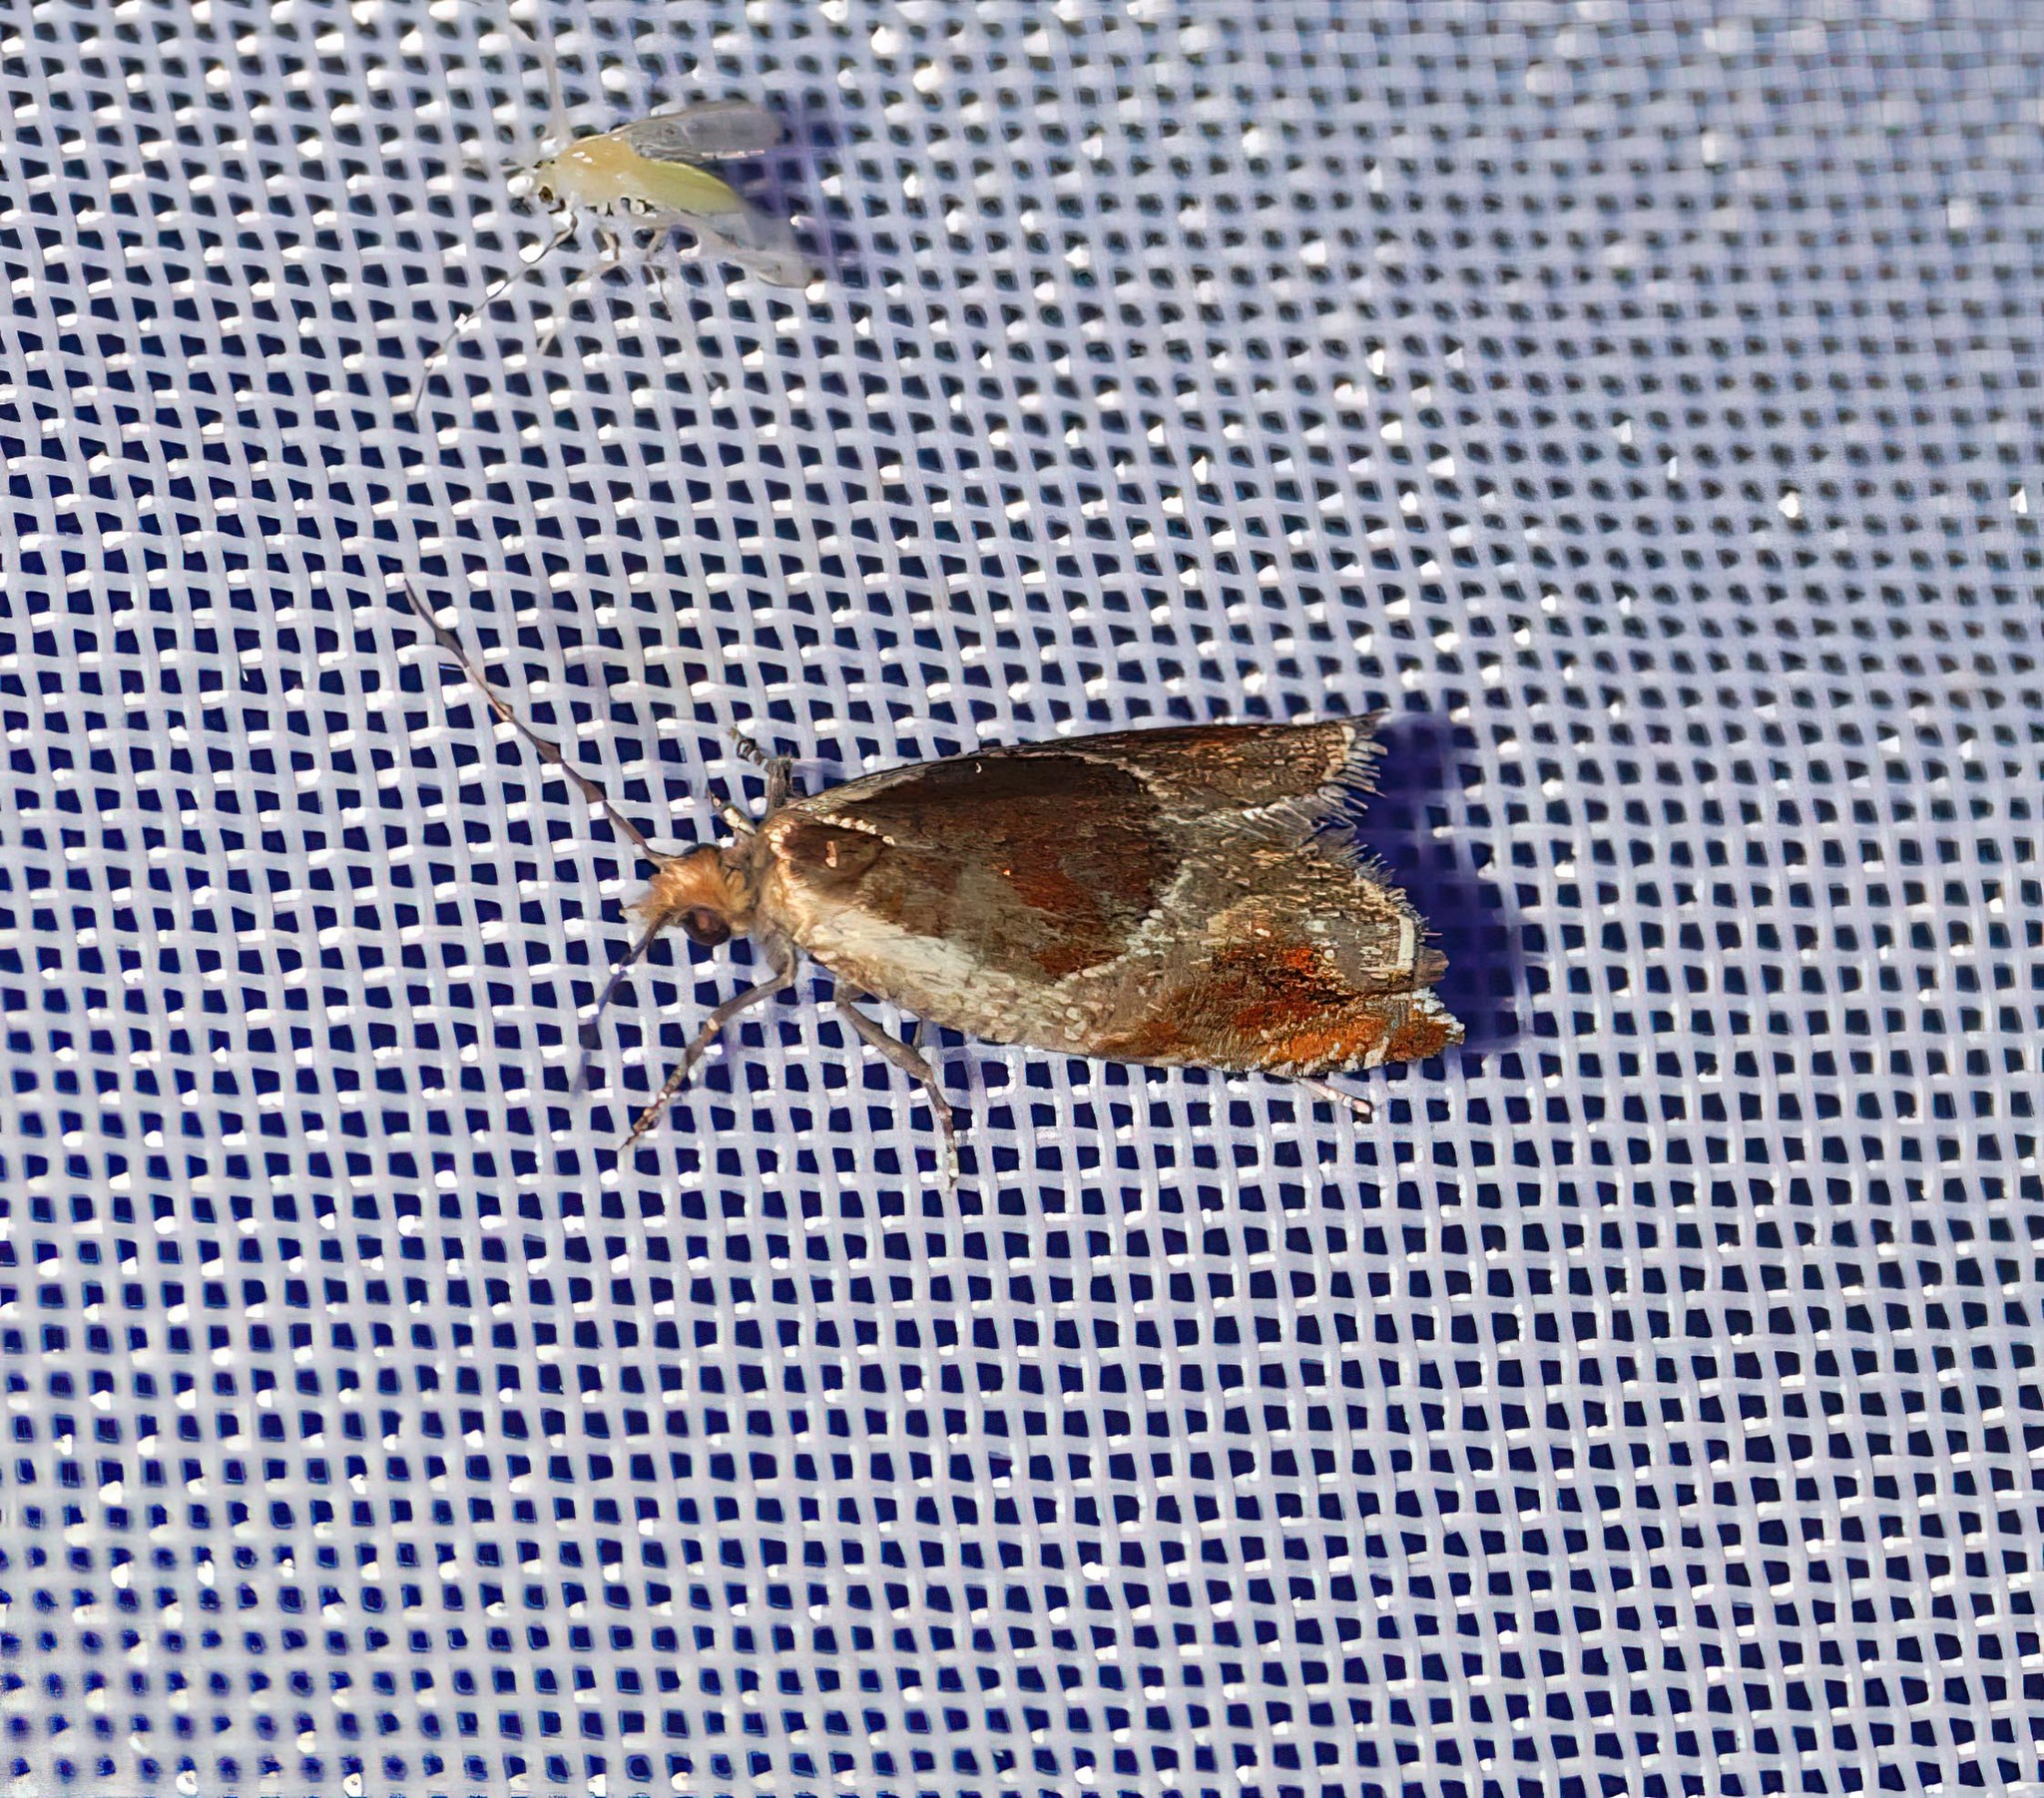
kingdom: Animalia
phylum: Arthropoda
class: Insecta
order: Lepidoptera
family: Tortricidae
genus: Ancylis
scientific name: Ancylis unculana
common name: Buckthorn roller
